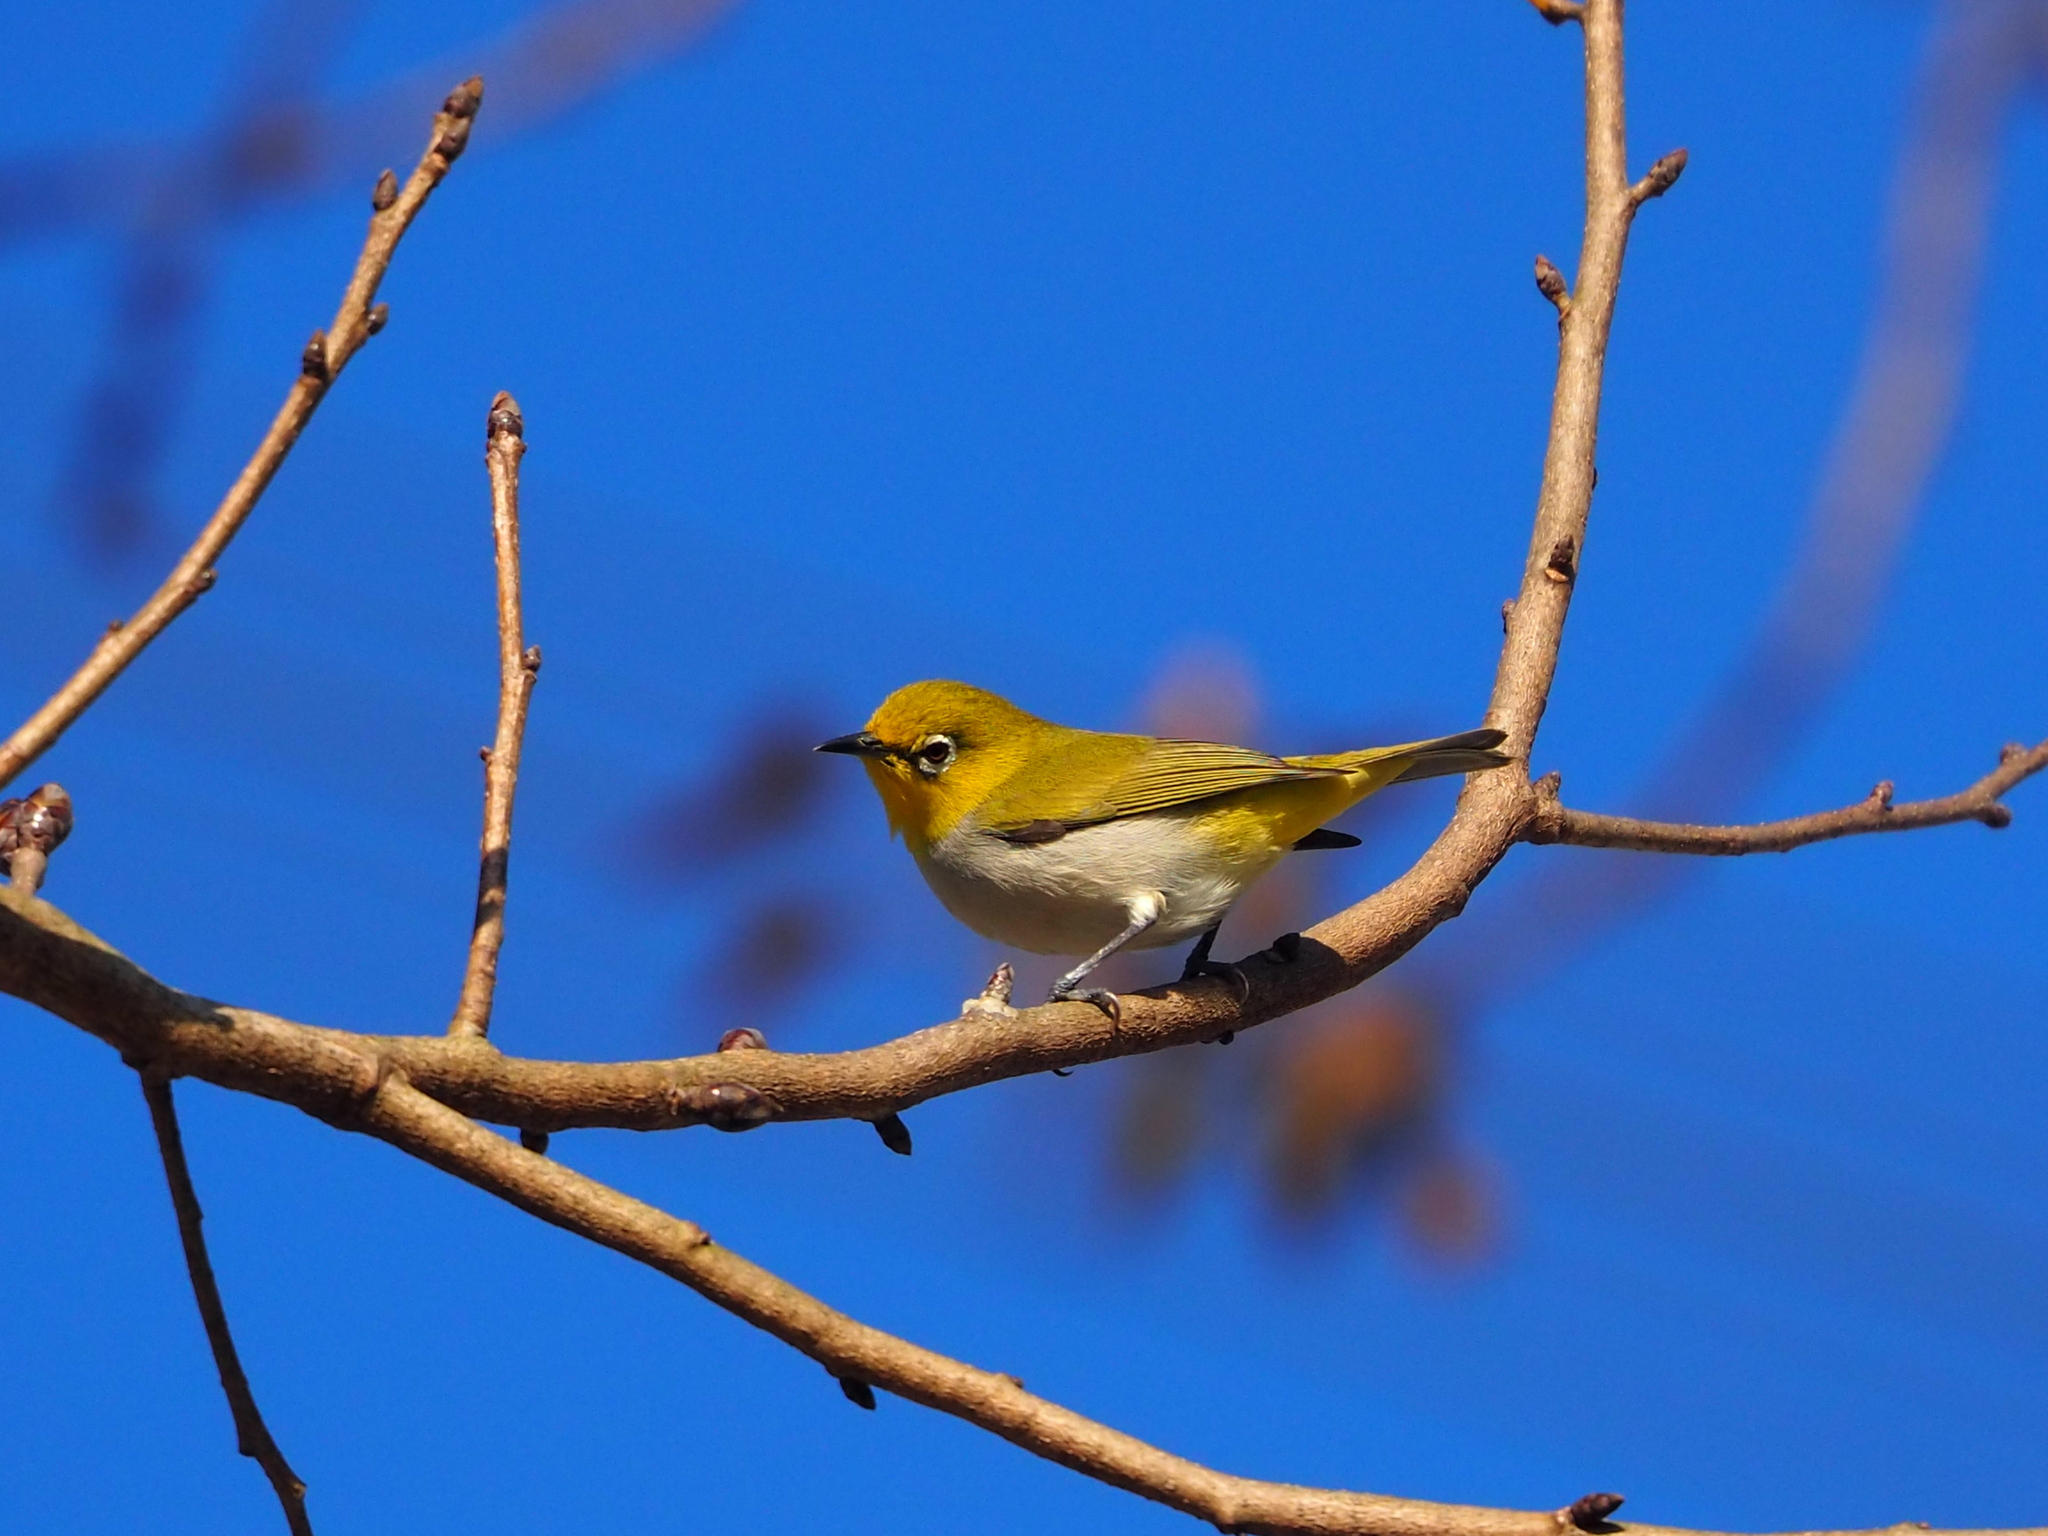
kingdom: Animalia
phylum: Chordata
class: Aves
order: Passeriformes
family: Zosteropidae
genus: Zosterops
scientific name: Zosterops simplex
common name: Swinhoe's white-eye
